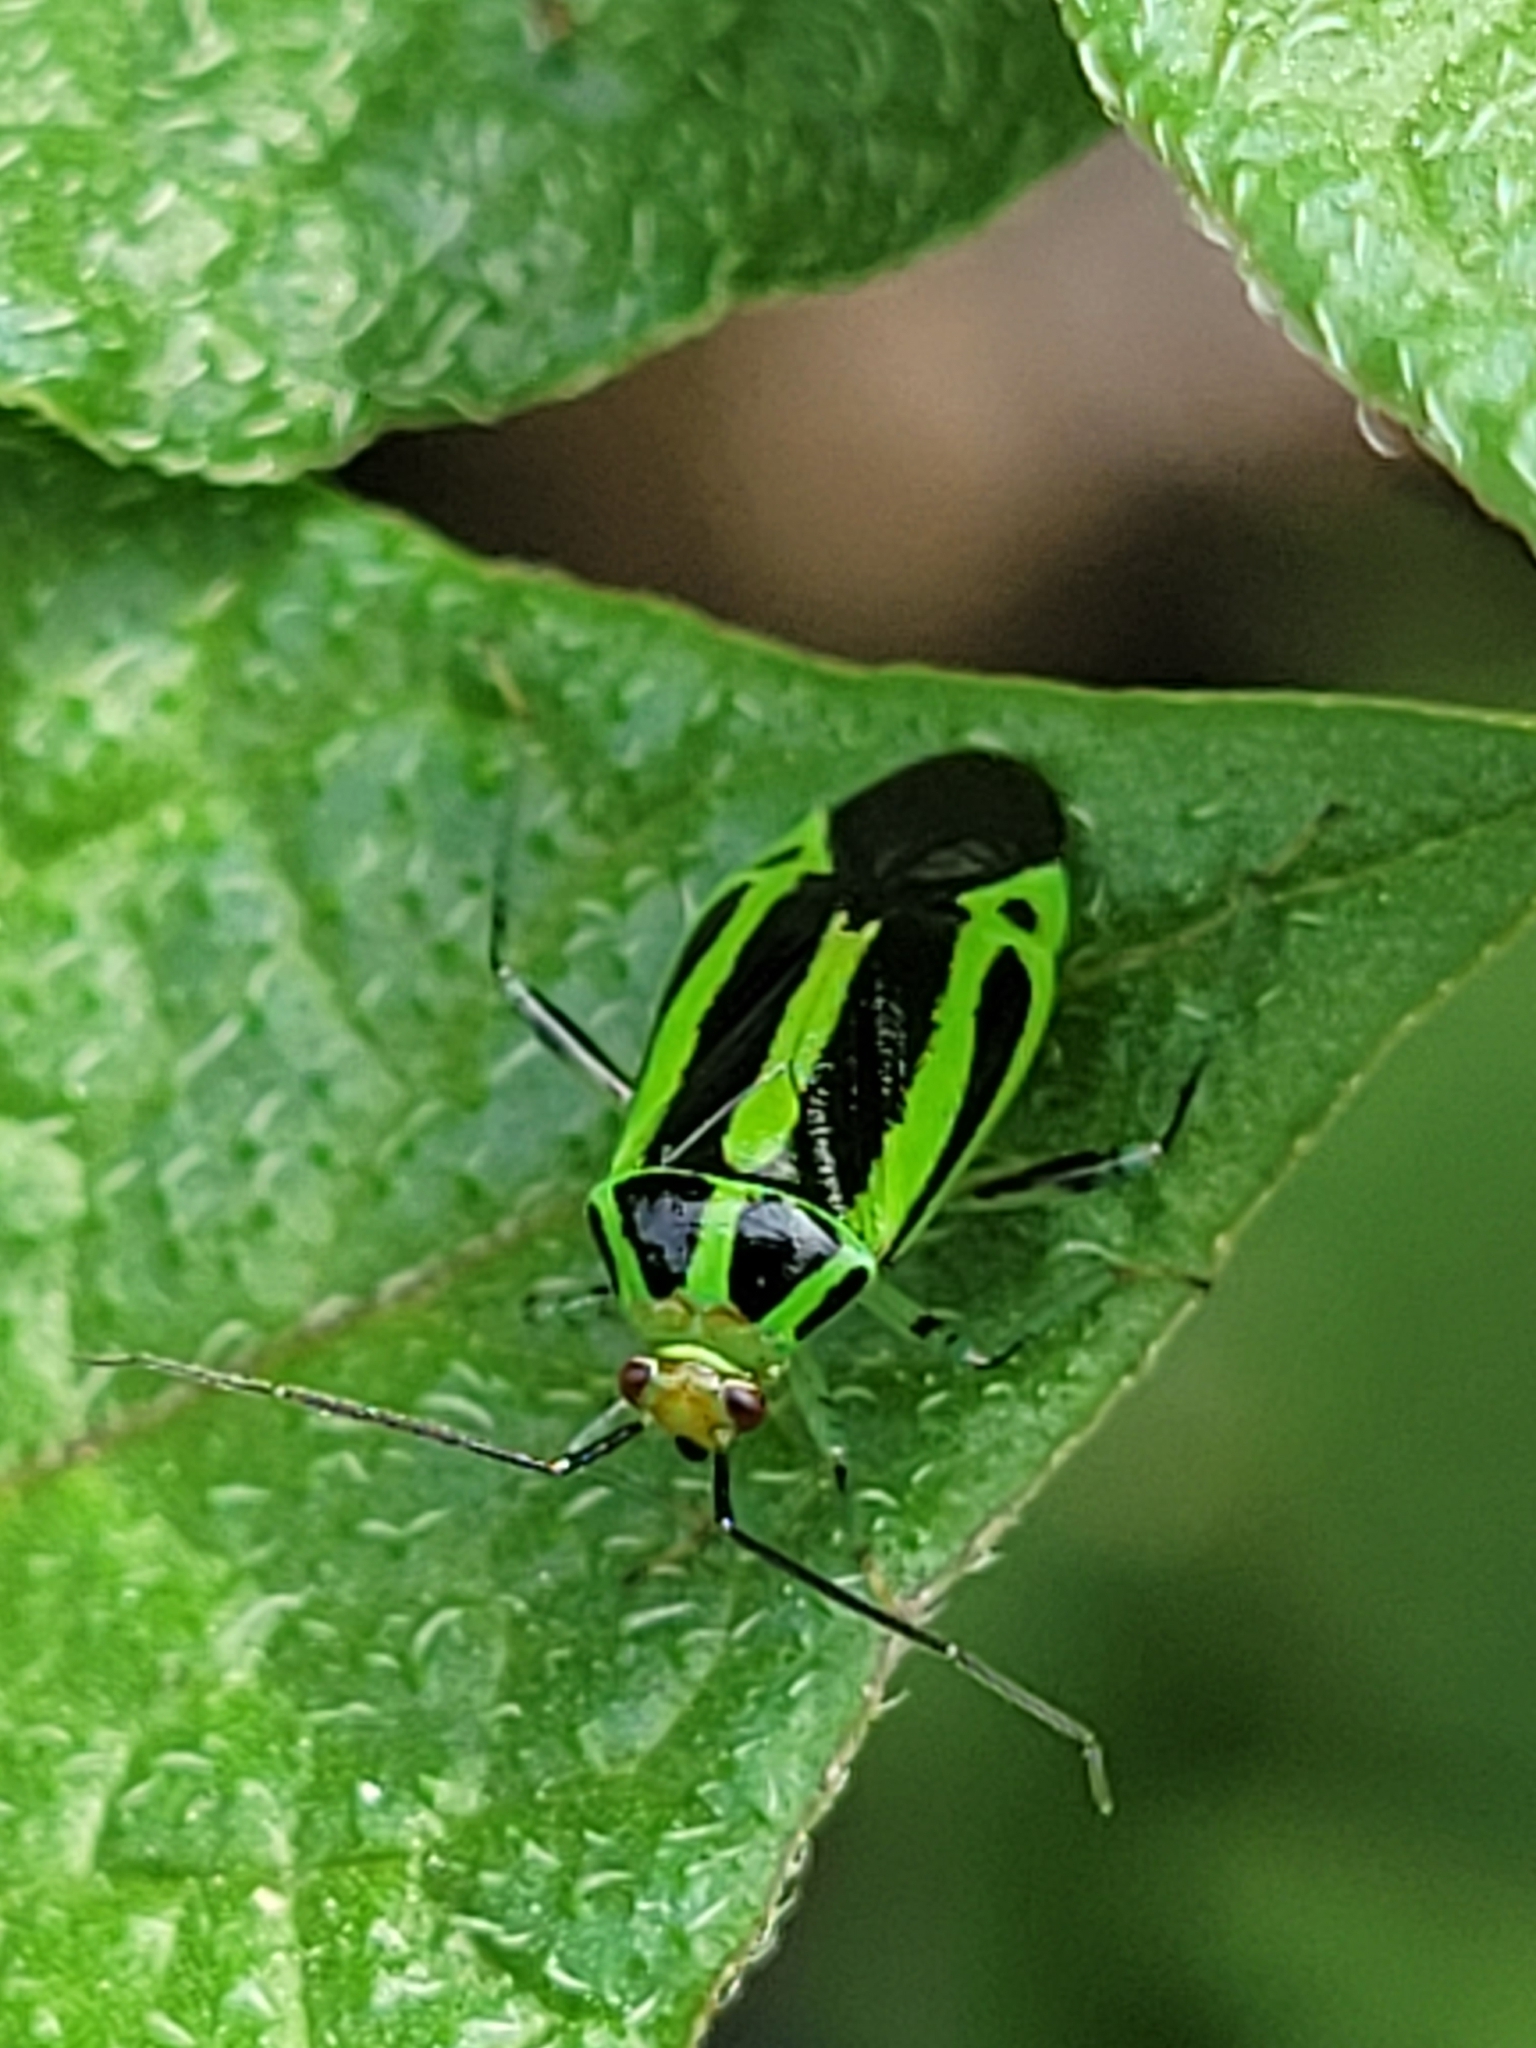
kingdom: Animalia
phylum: Arthropoda
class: Insecta
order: Hemiptera
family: Miridae
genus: Poecilocapsus
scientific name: Poecilocapsus lineatus
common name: Four-lined plant bug
